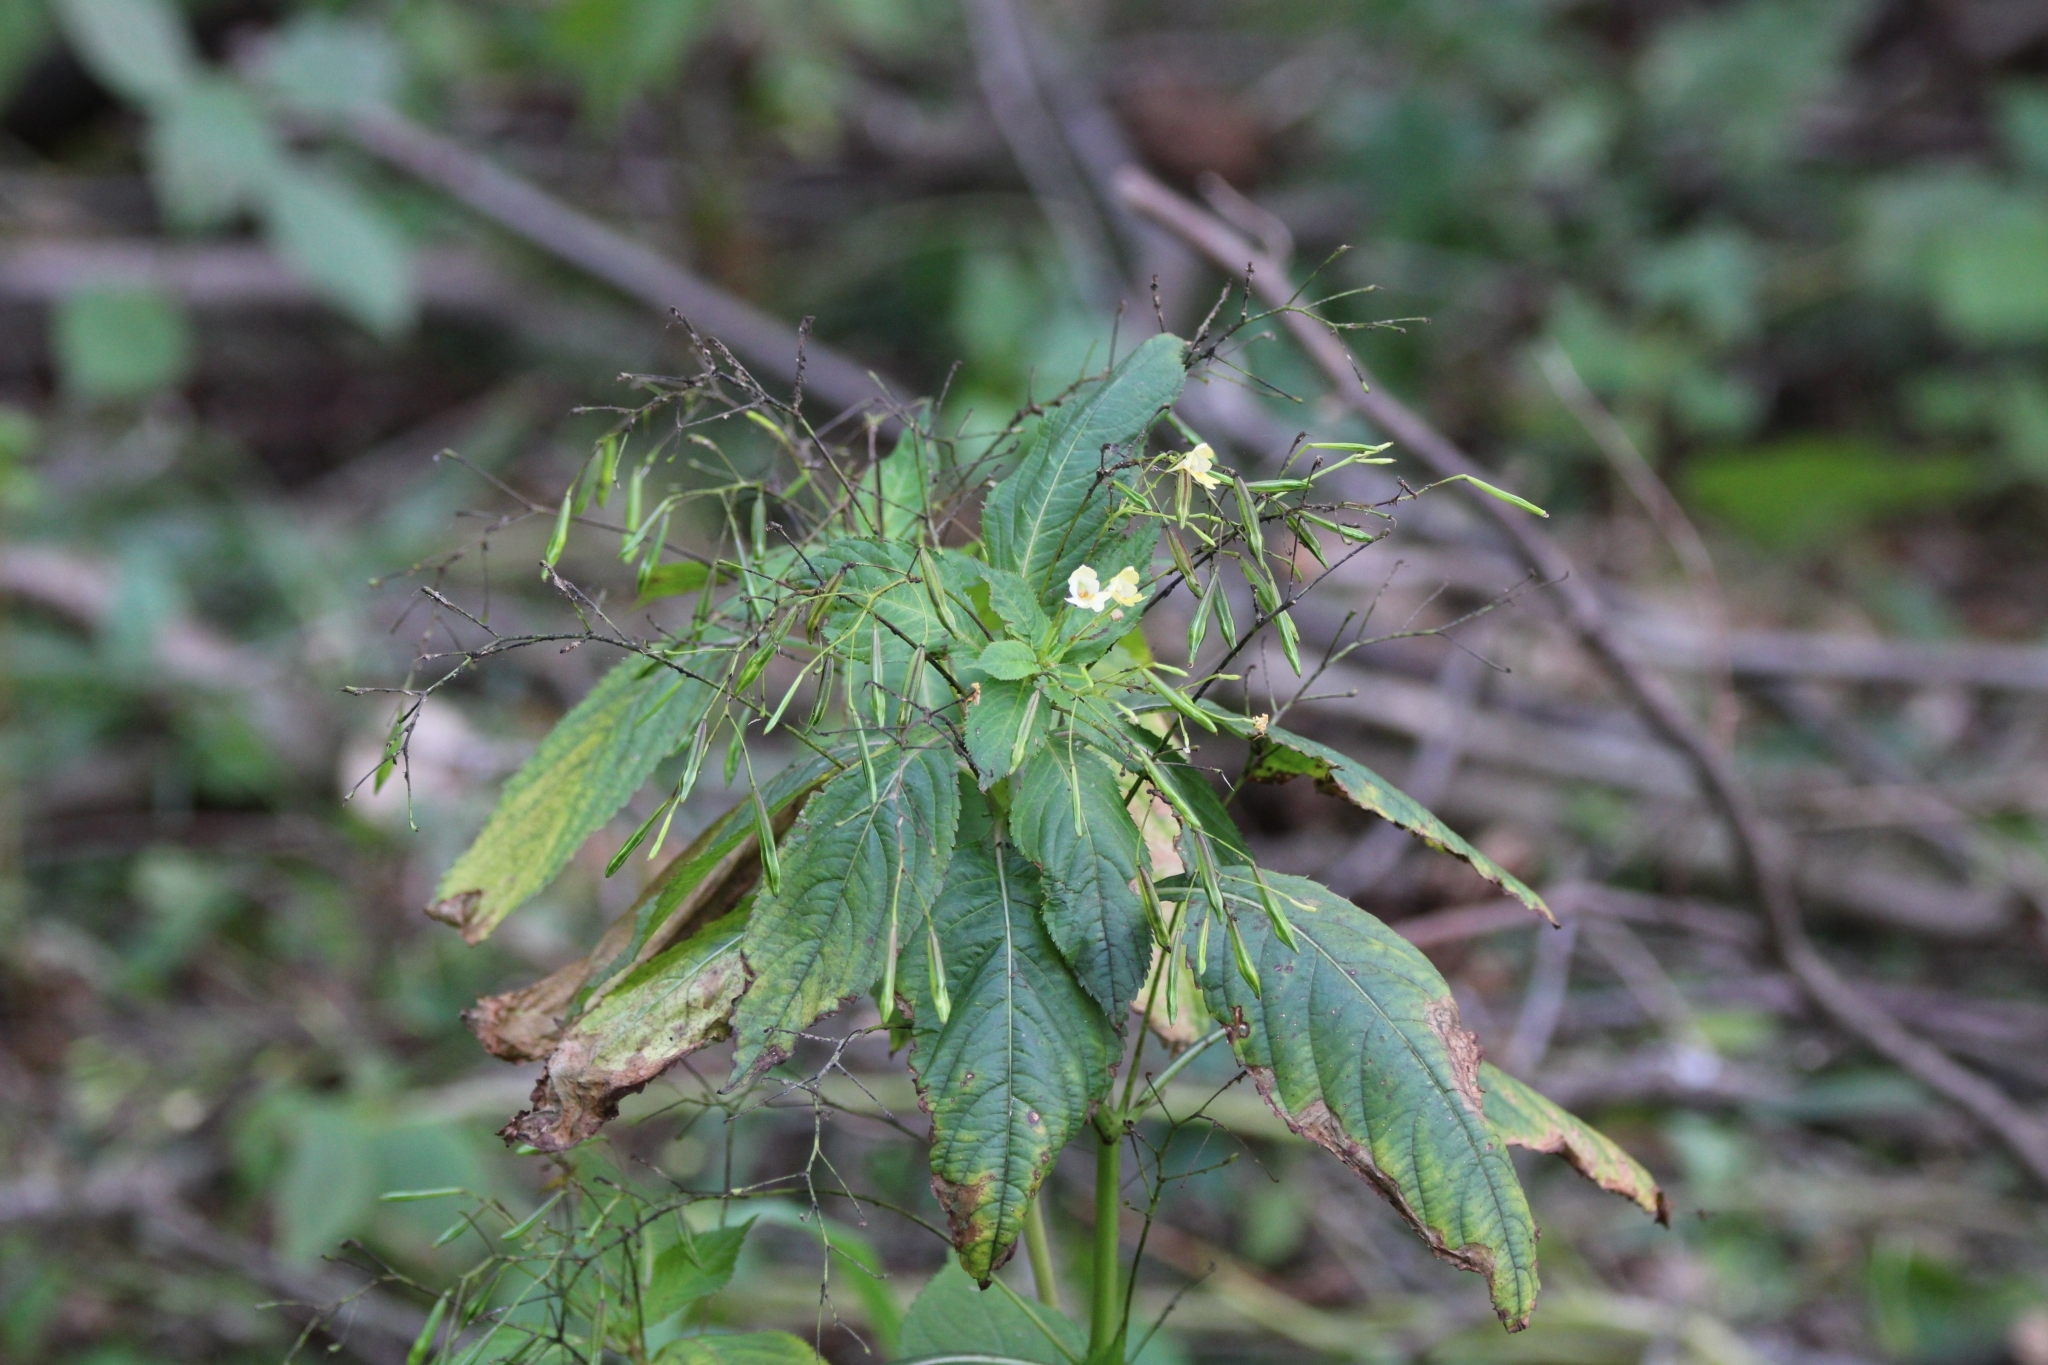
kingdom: Plantae
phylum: Tracheophyta
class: Magnoliopsida
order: Ericales
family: Balsaminaceae
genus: Impatiens
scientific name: Impatiens parviflora
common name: Small balsam
